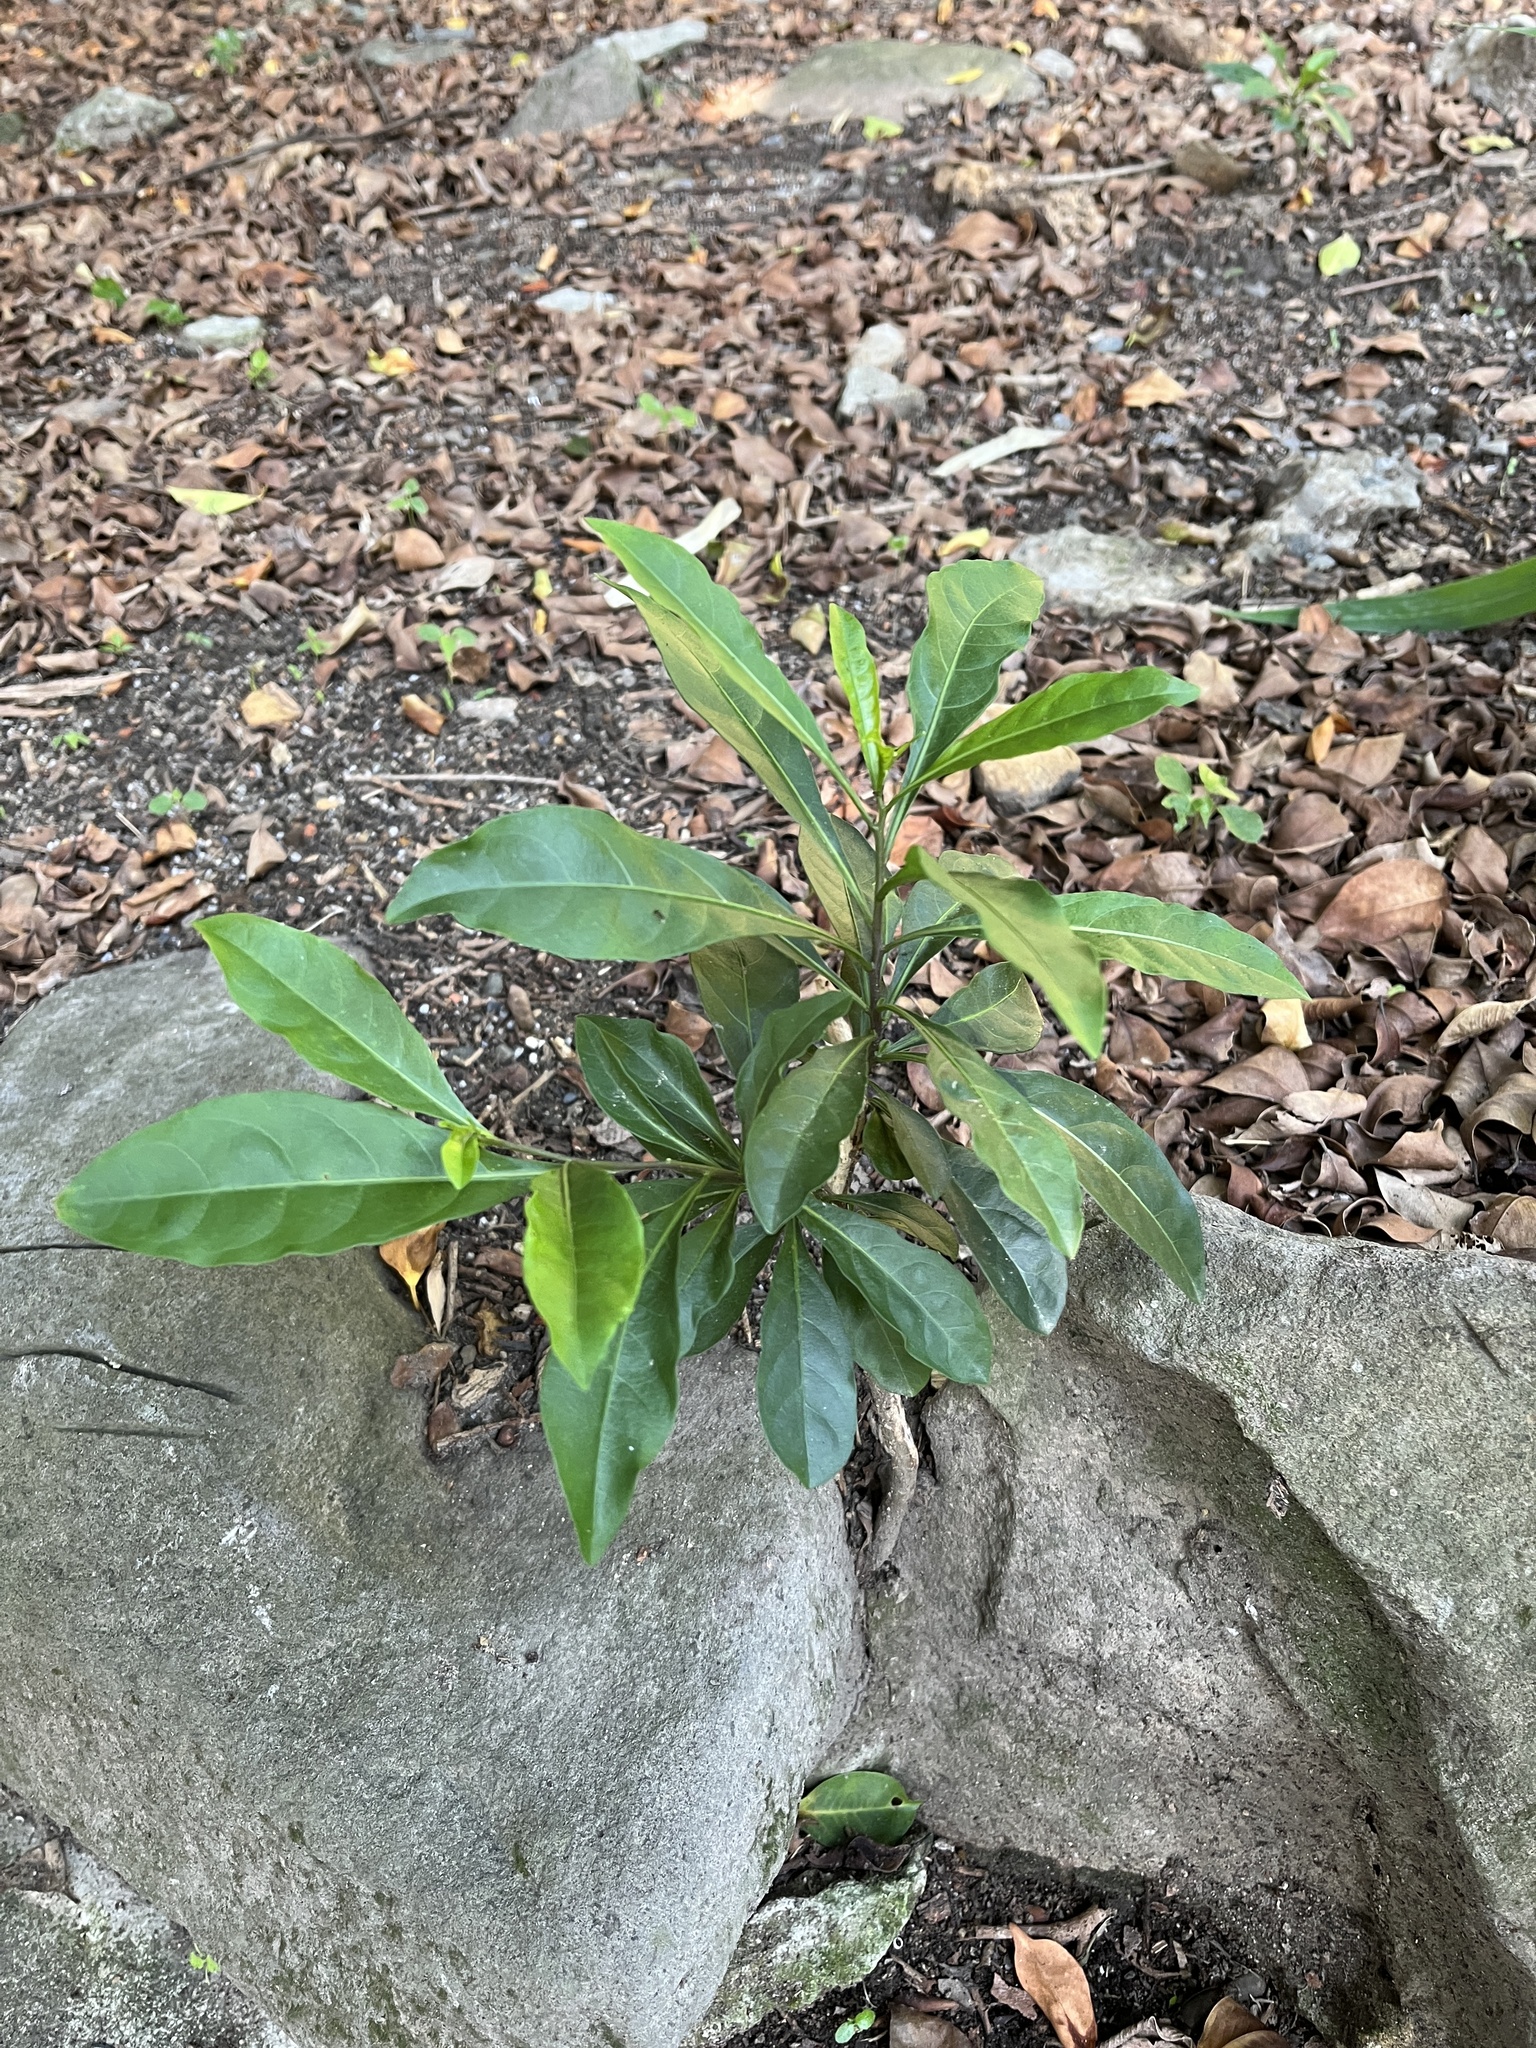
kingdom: Plantae
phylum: Tracheophyta
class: Magnoliopsida
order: Solanales
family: Solanaceae
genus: Solanum
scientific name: Solanum diphyllum
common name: Twoleaf nightshade
